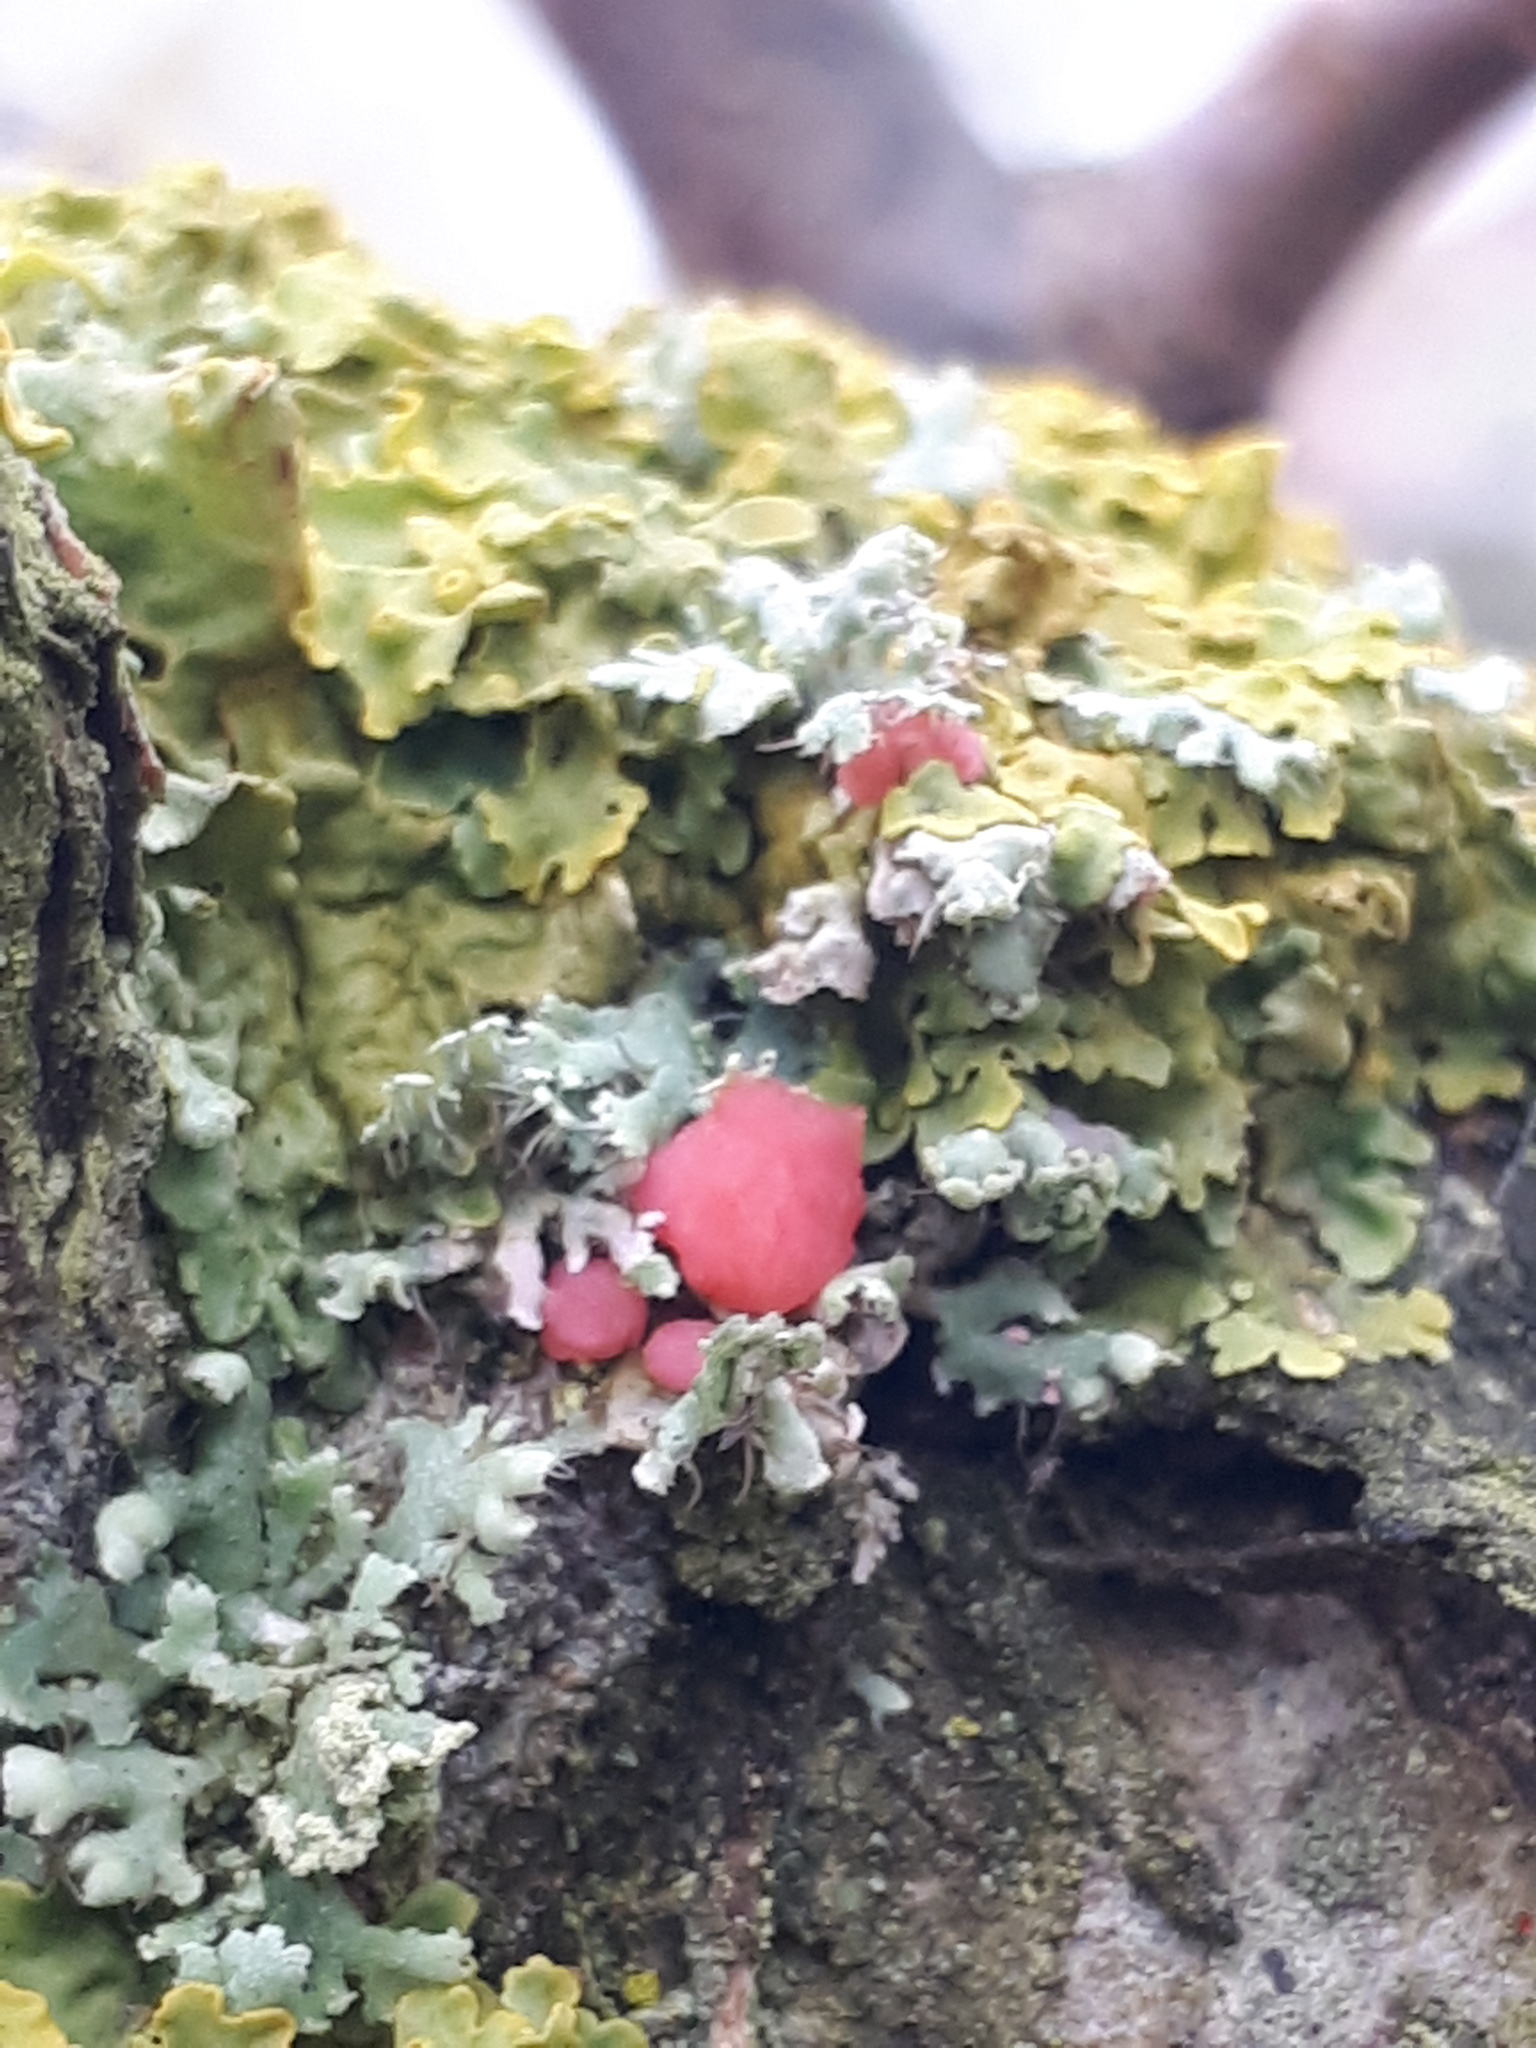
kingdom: Fungi
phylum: Ascomycota
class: Sordariomycetes
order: Hypocreales
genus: Illosporiopsis
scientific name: Illosporiopsis christiansenii
